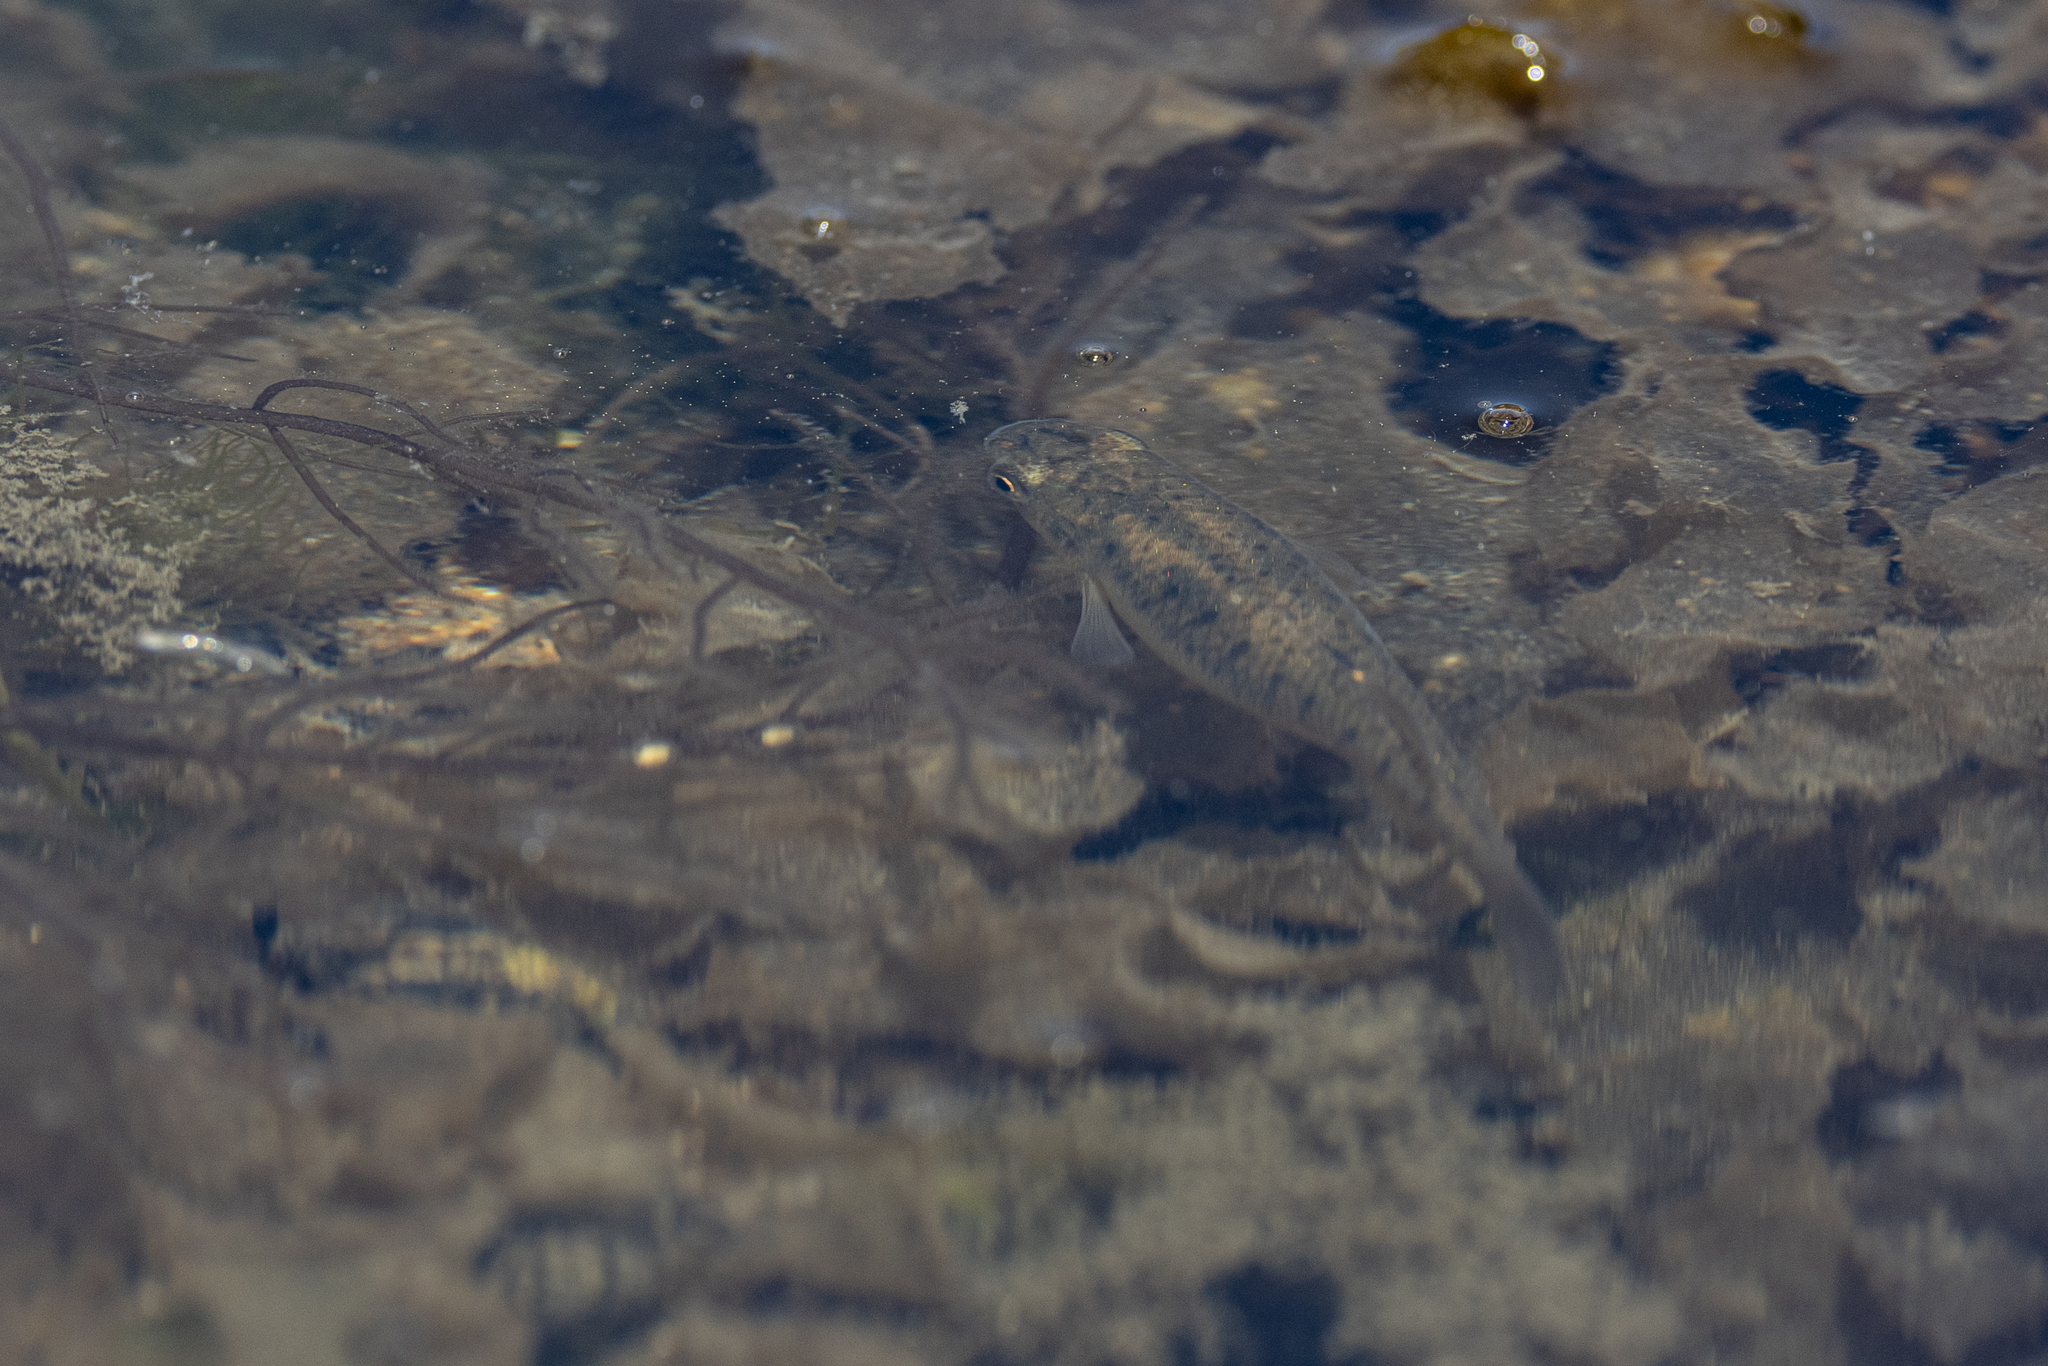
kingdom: Animalia
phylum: Chordata
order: Cyprinodontiformes
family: Fundulidae
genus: Fundulus
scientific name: Fundulus heteroclitus
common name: Mummichog
